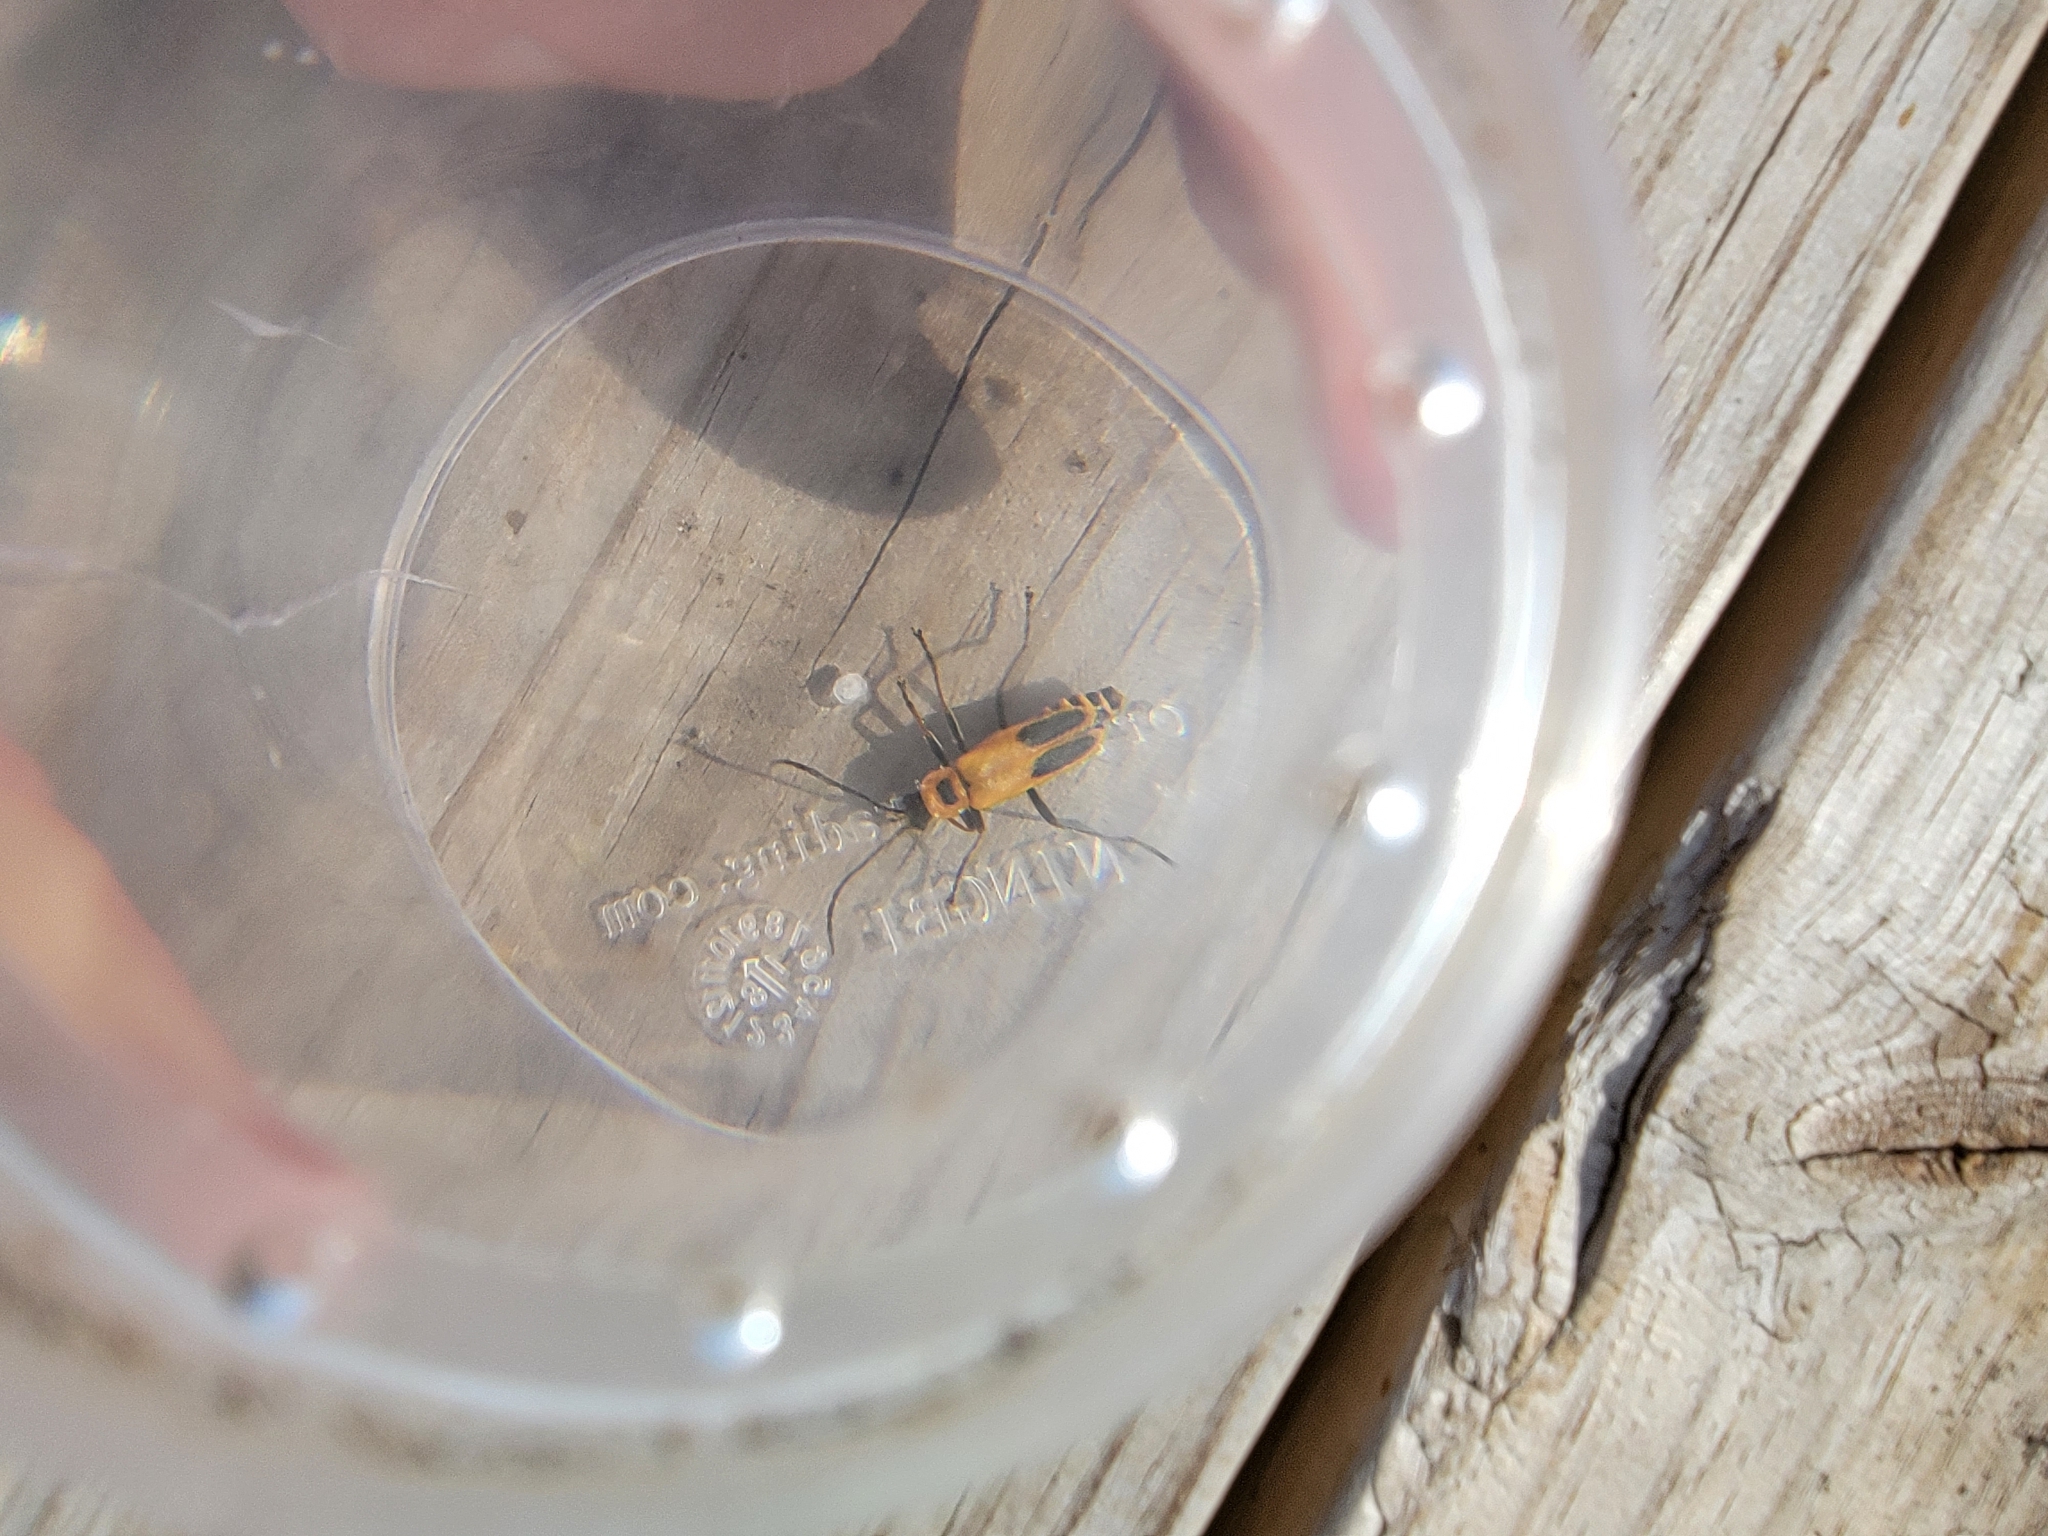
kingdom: Animalia
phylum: Arthropoda
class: Insecta
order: Coleoptera
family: Cantharidae
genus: Chauliognathus
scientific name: Chauliognathus pensylvanicus
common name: Goldenrod soldier beetle
